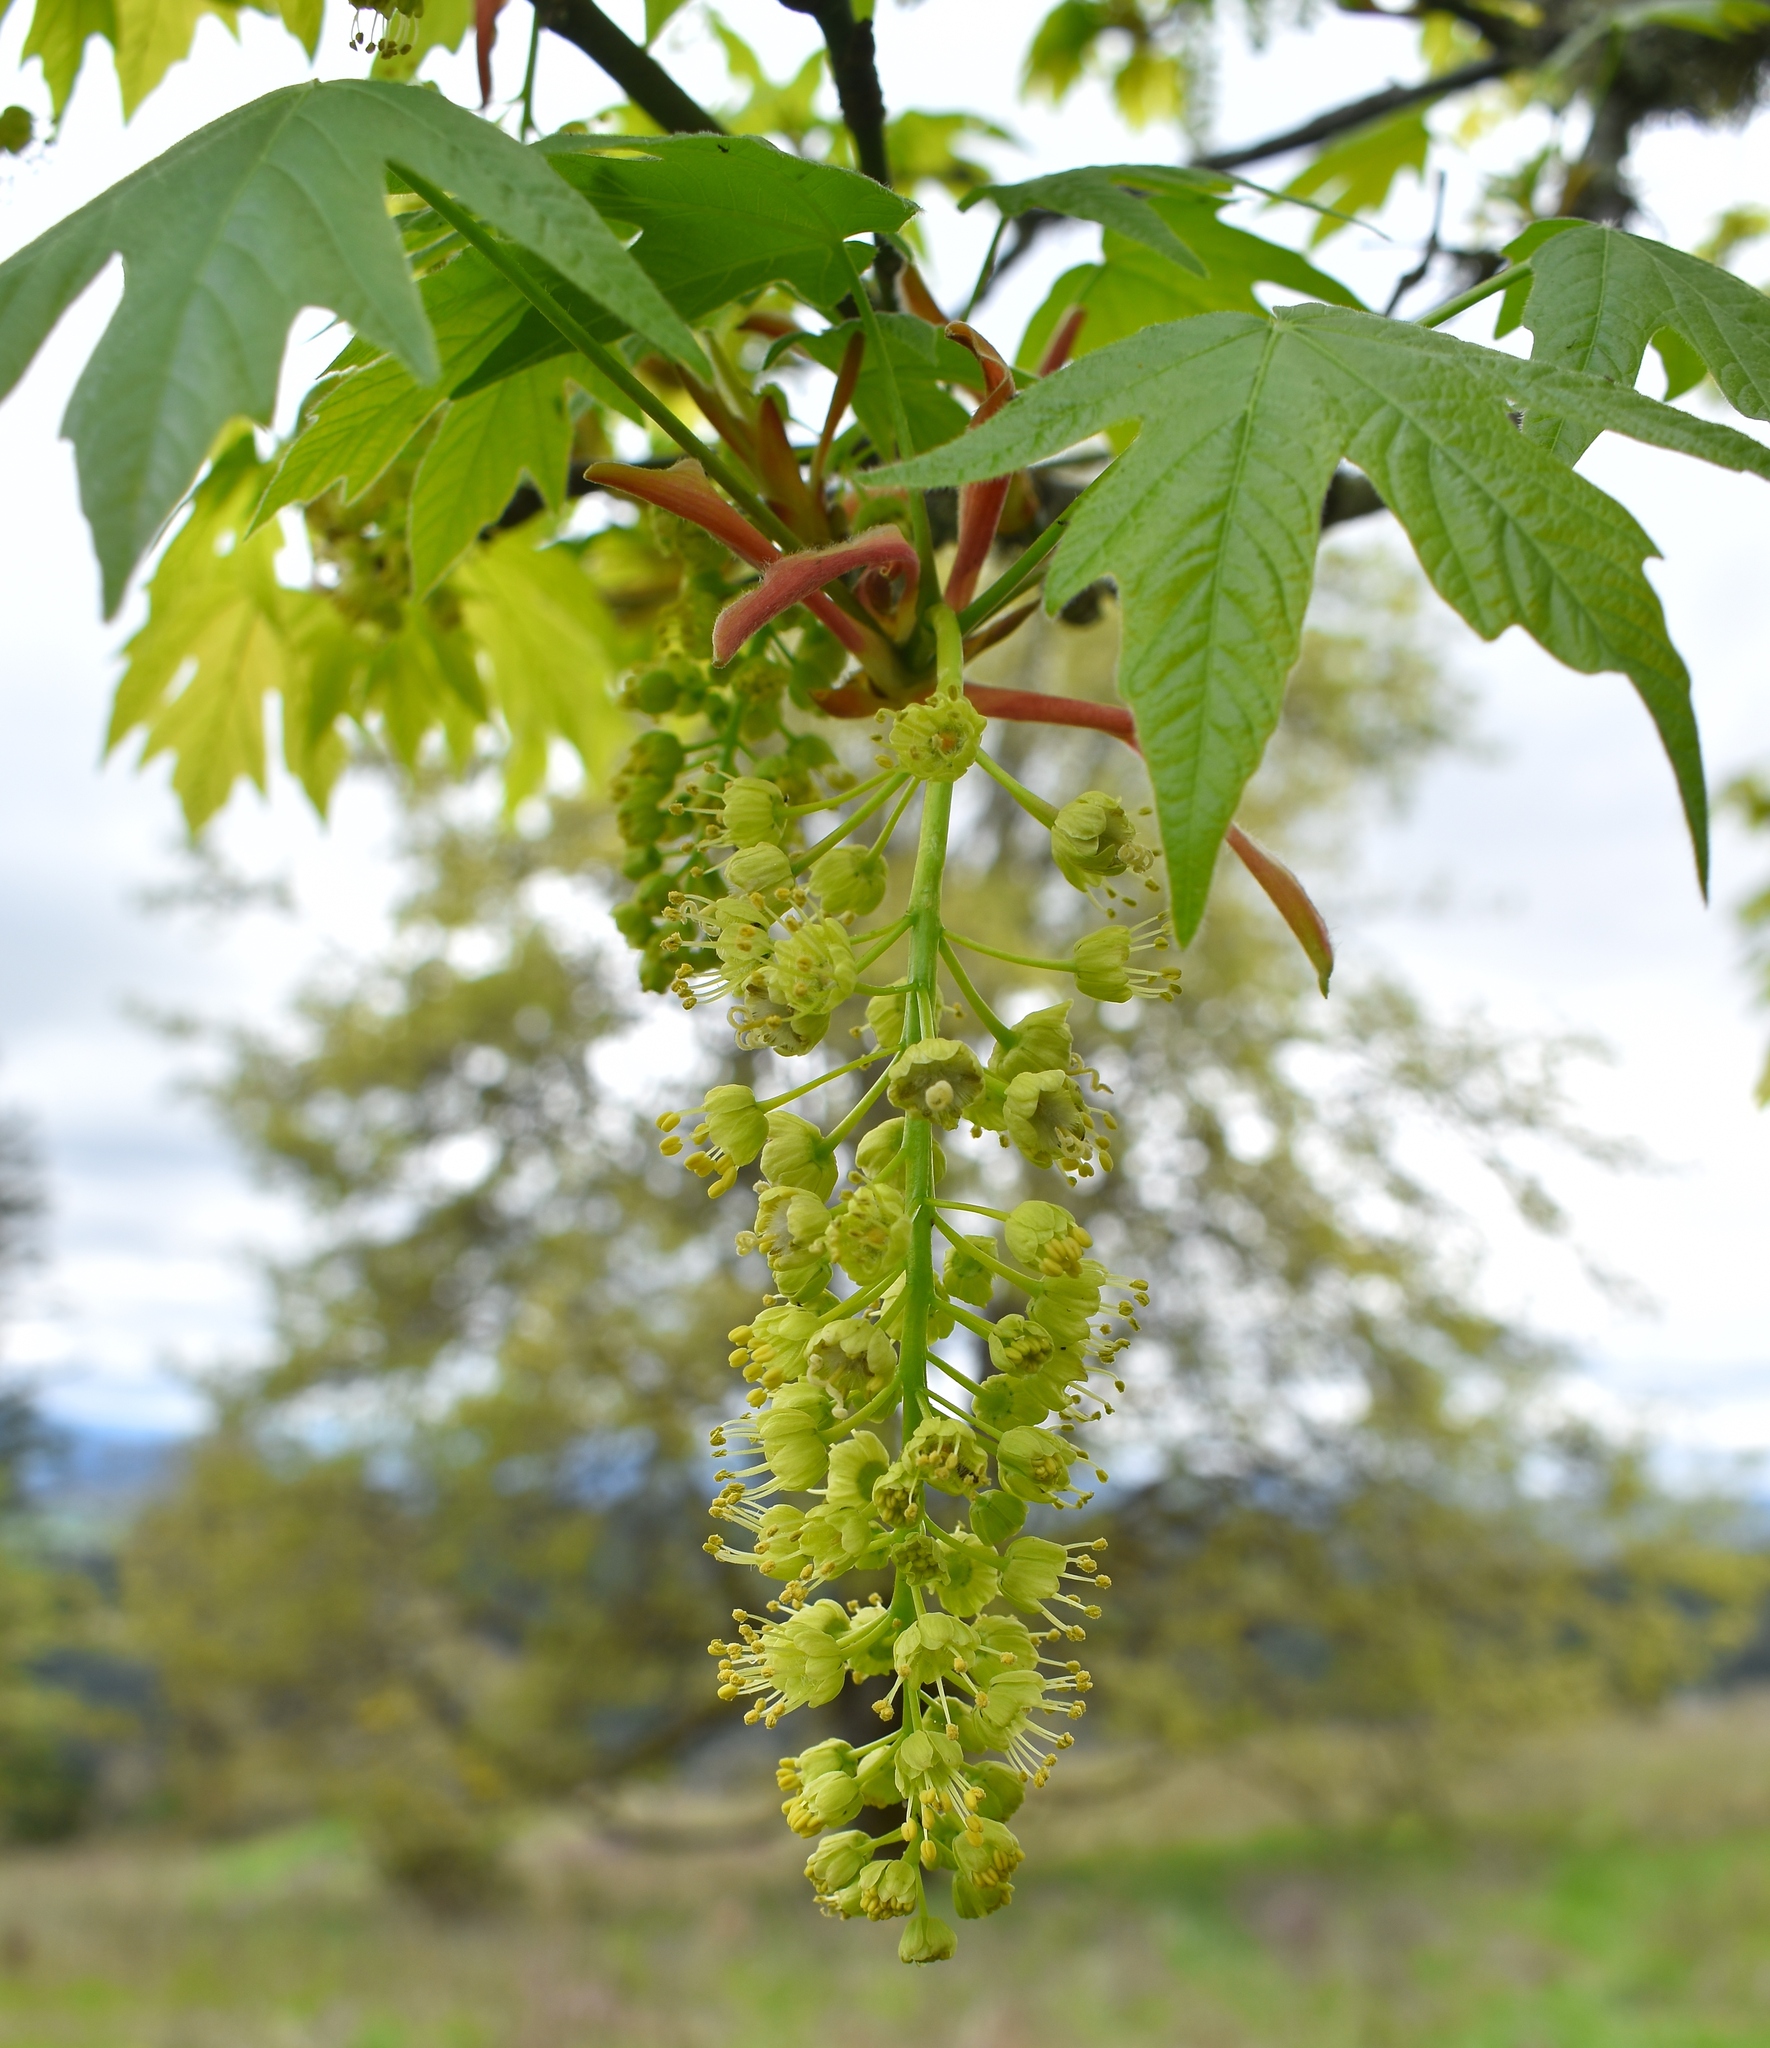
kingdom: Plantae
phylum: Tracheophyta
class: Magnoliopsida
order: Sapindales
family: Sapindaceae
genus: Acer
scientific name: Acer macrophyllum
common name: Oregon maple
